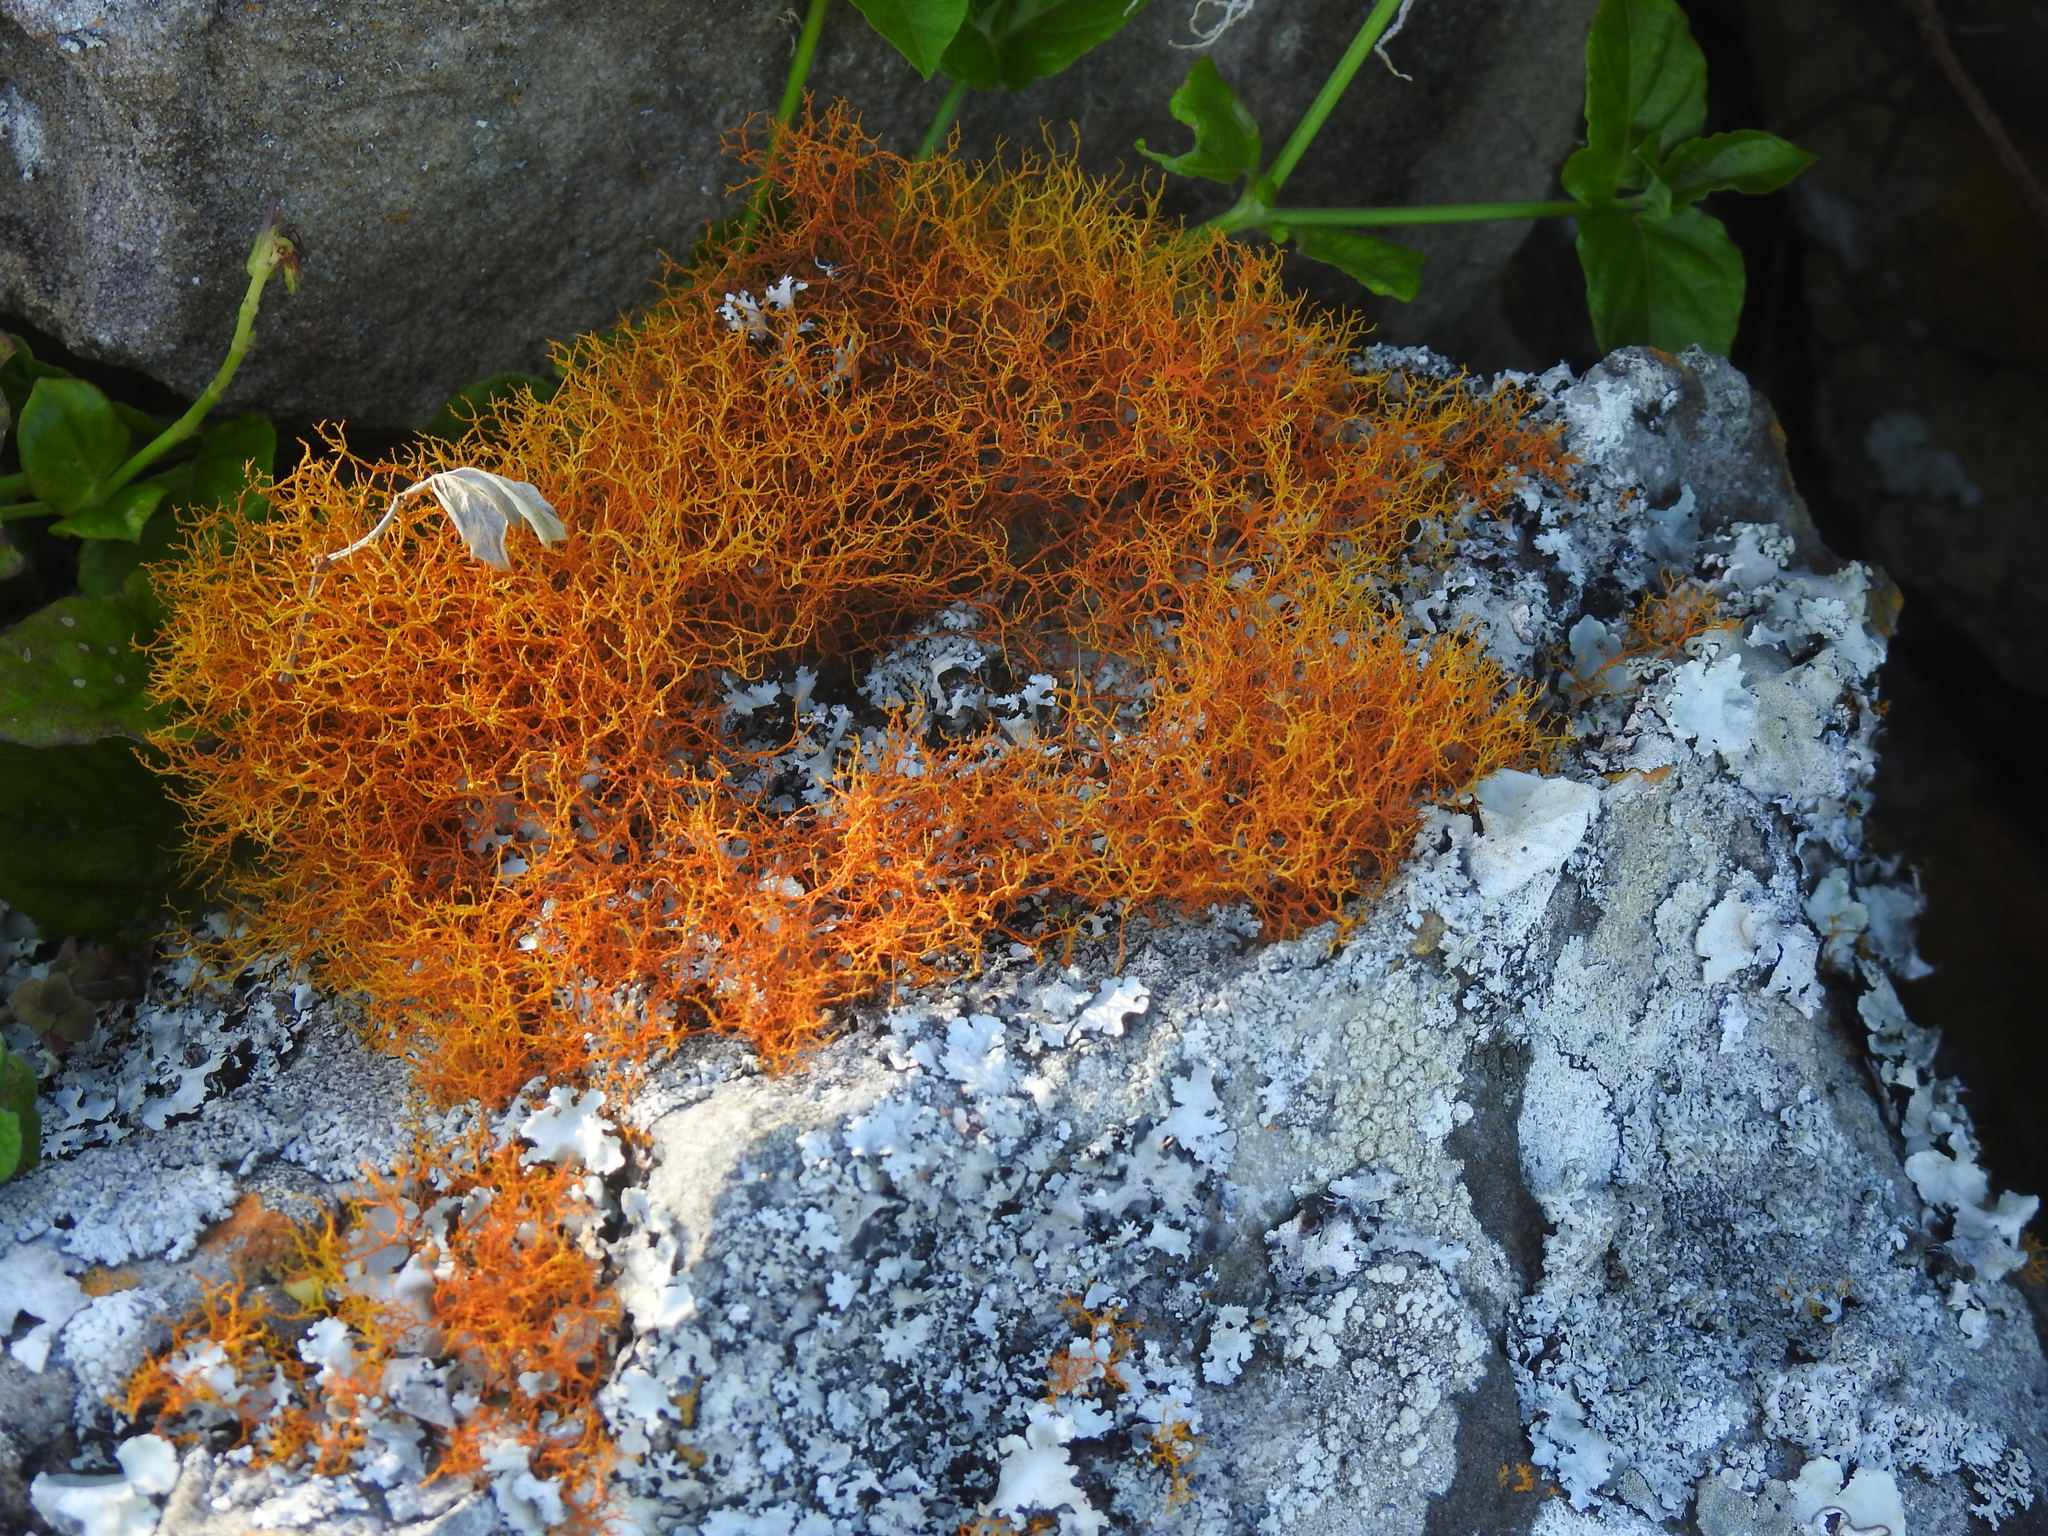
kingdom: Fungi
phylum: Ascomycota
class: Lecanoromycetes
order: Teloschistales
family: Teloschistaceae
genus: Teloschistes
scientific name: Teloschistes flavicans
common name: Golden hair-lichen
